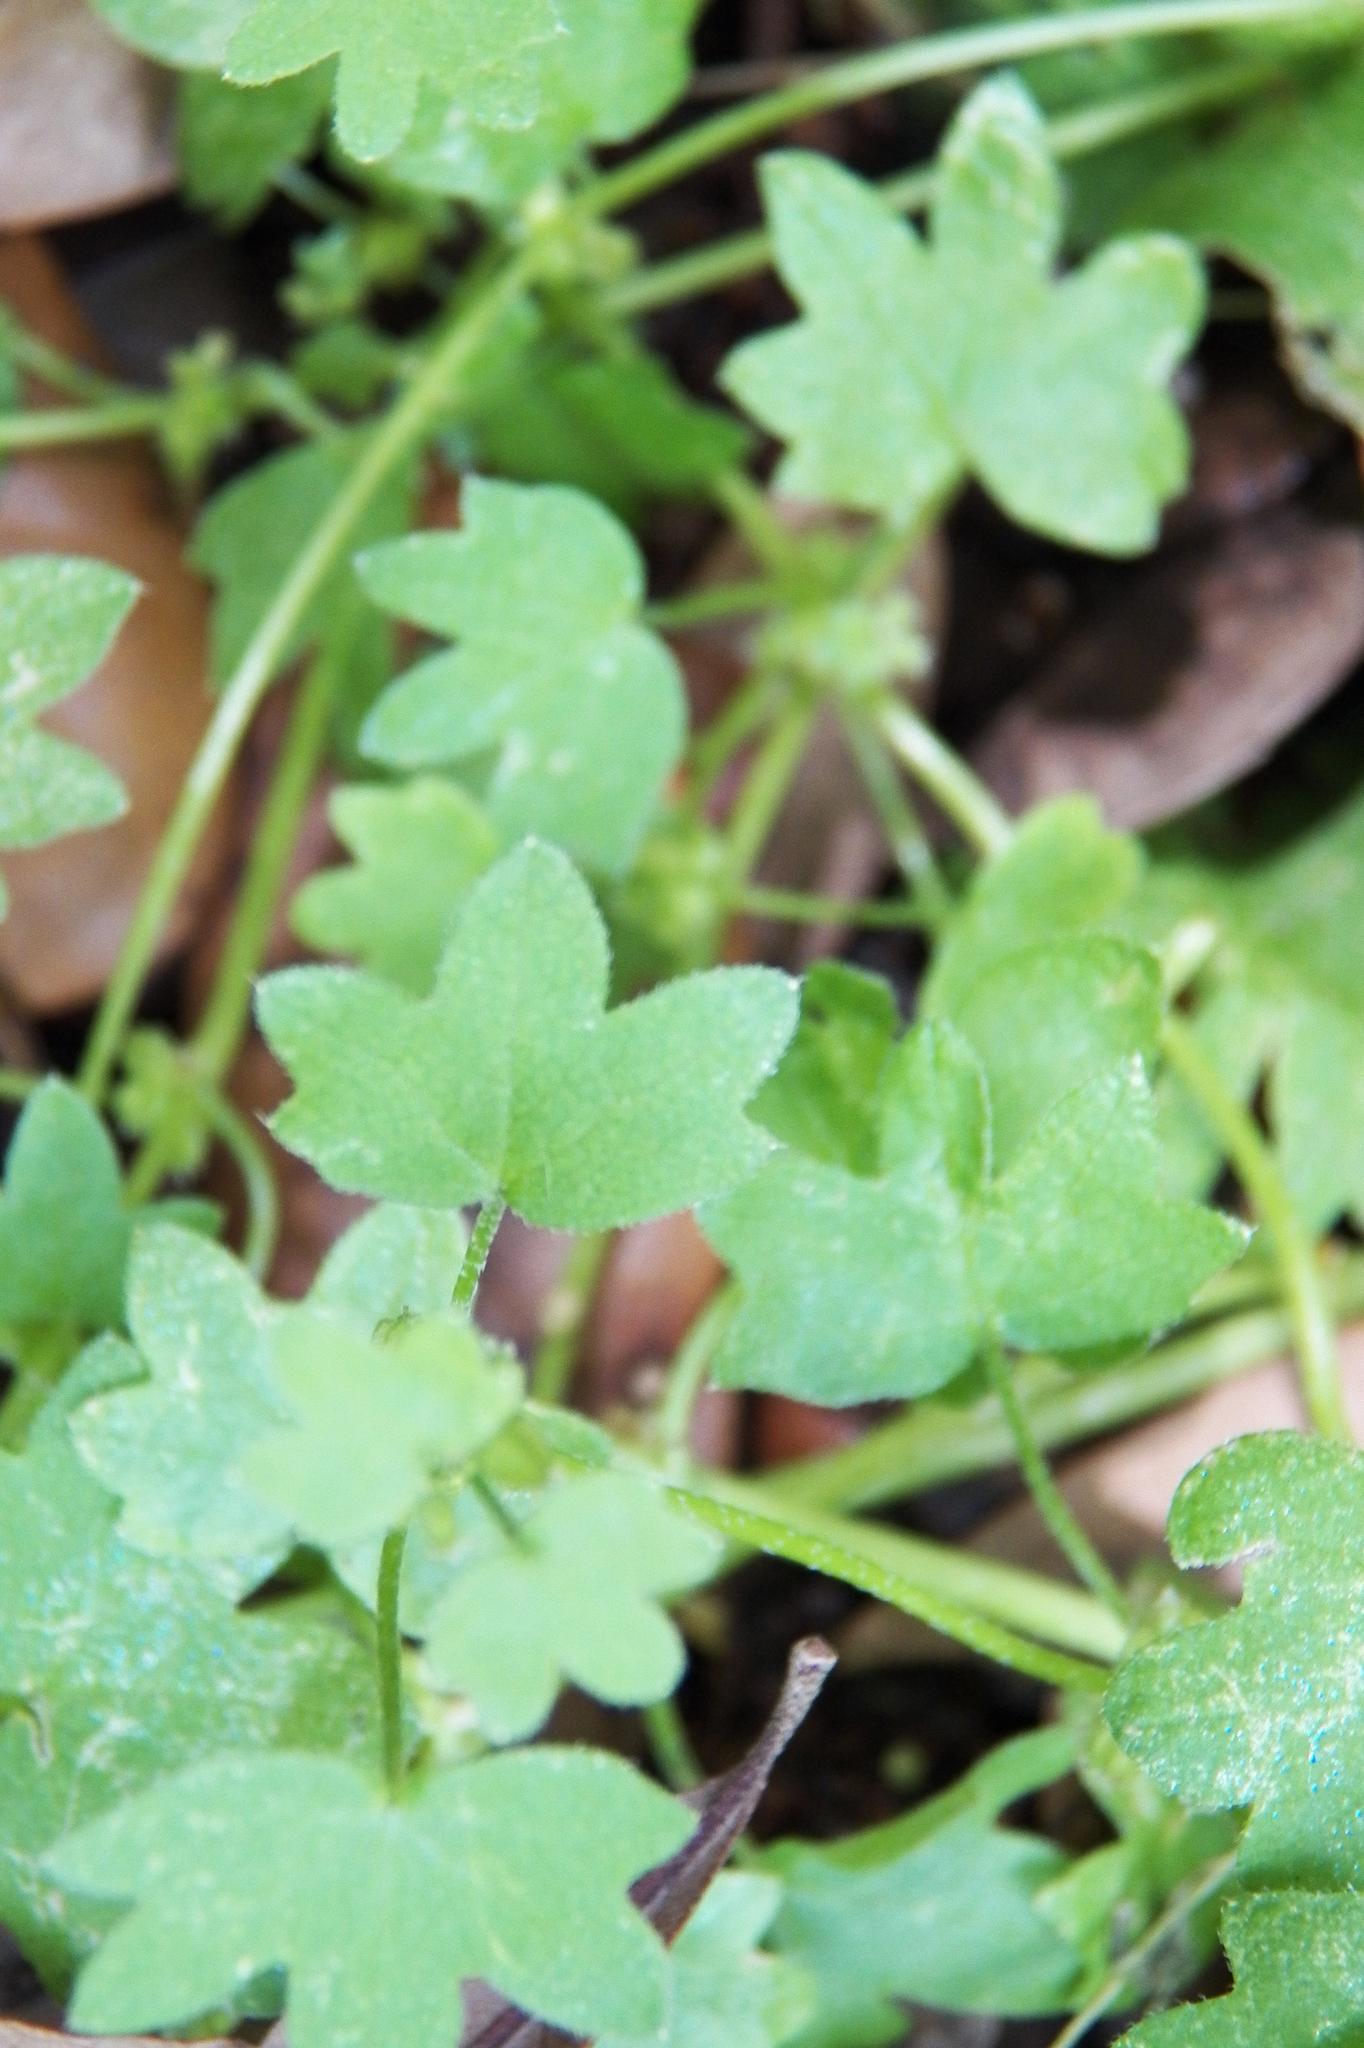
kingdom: Plantae
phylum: Tracheophyta
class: Magnoliopsida
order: Apiales
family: Apiaceae
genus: Bowlesia
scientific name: Bowlesia incana
